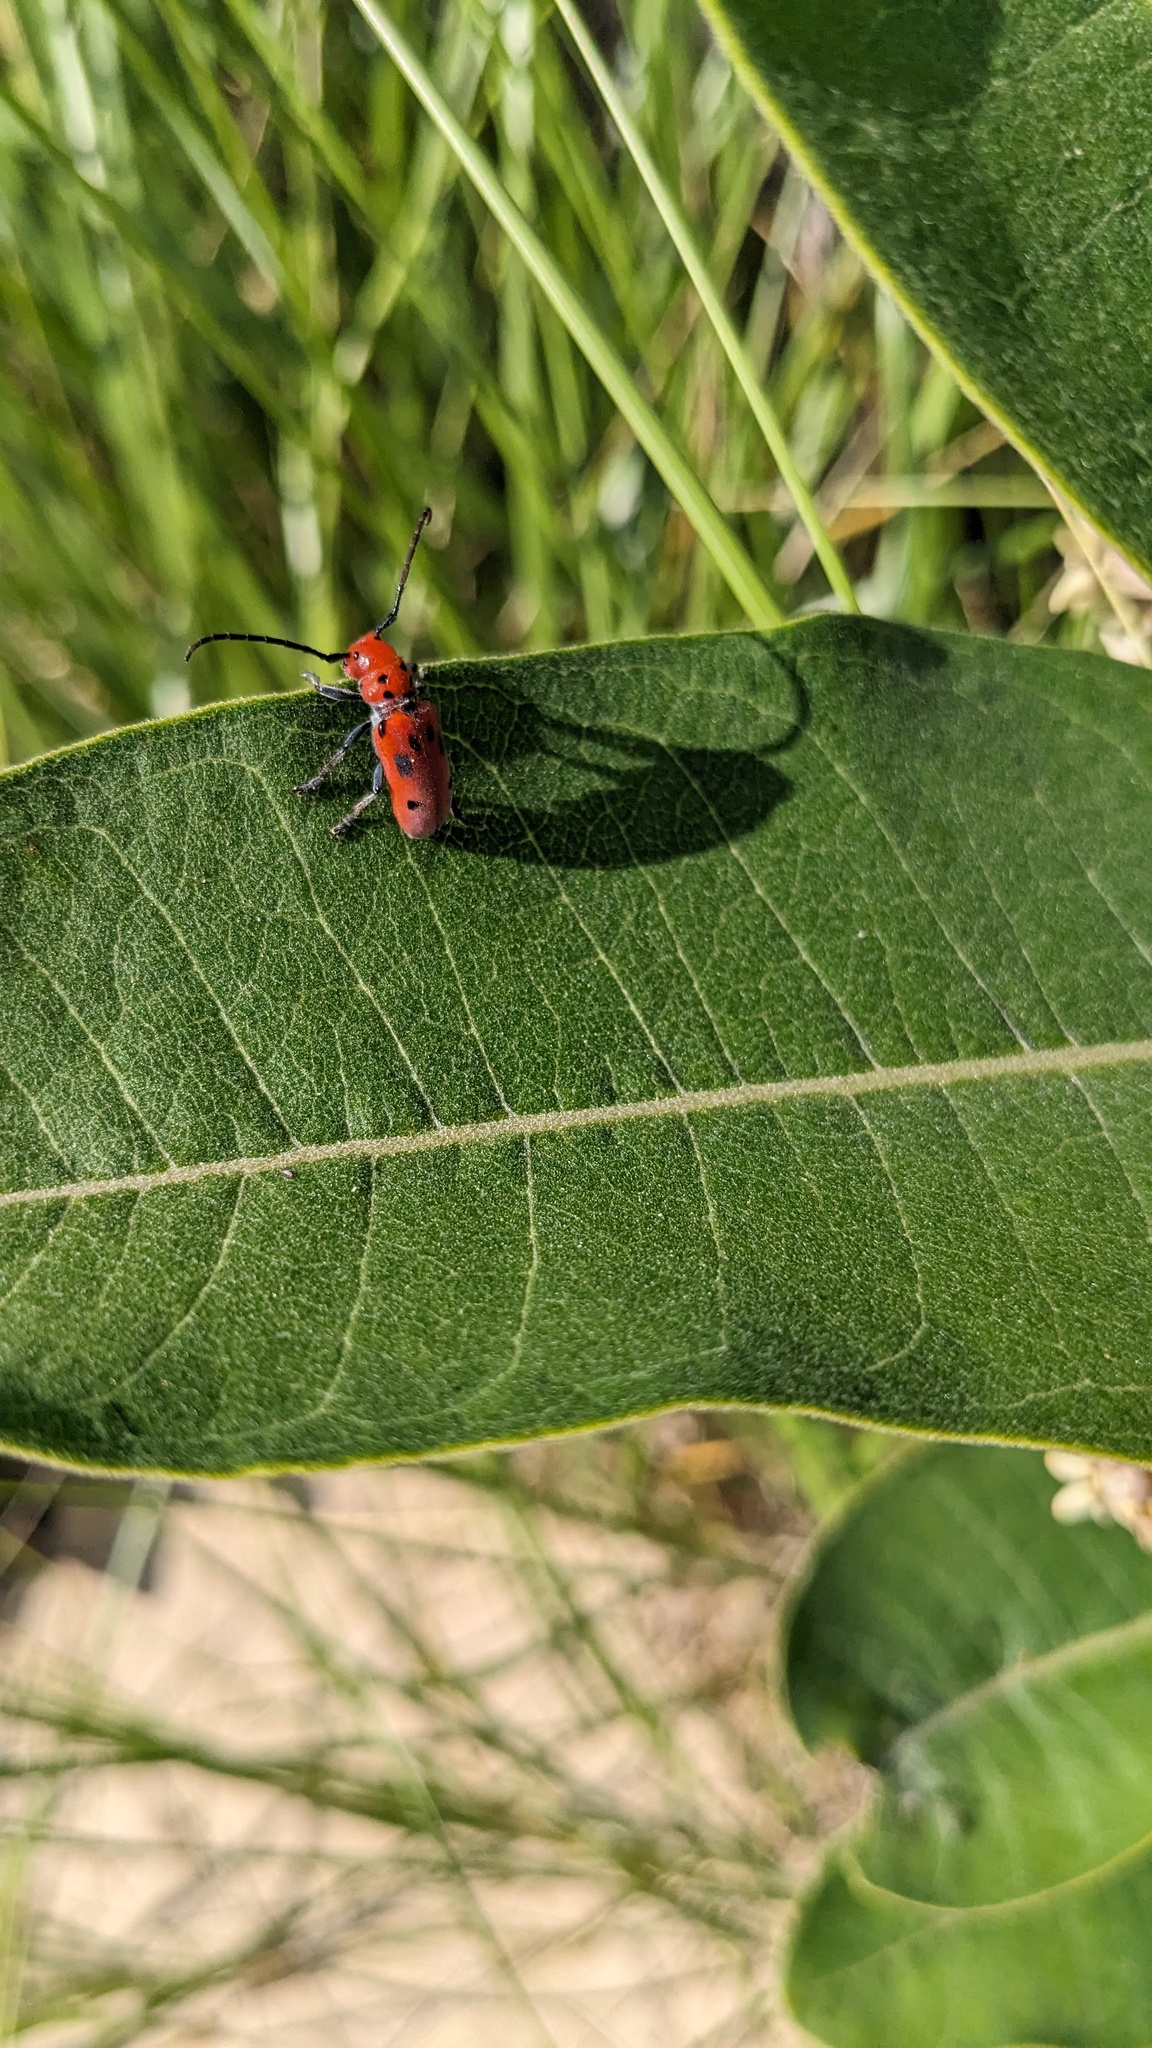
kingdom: Animalia
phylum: Arthropoda
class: Insecta
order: Coleoptera
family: Cerambycidae
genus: Tetraopes
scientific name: Tetraopes tetrophthalmus
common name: Red milkweed beetle
